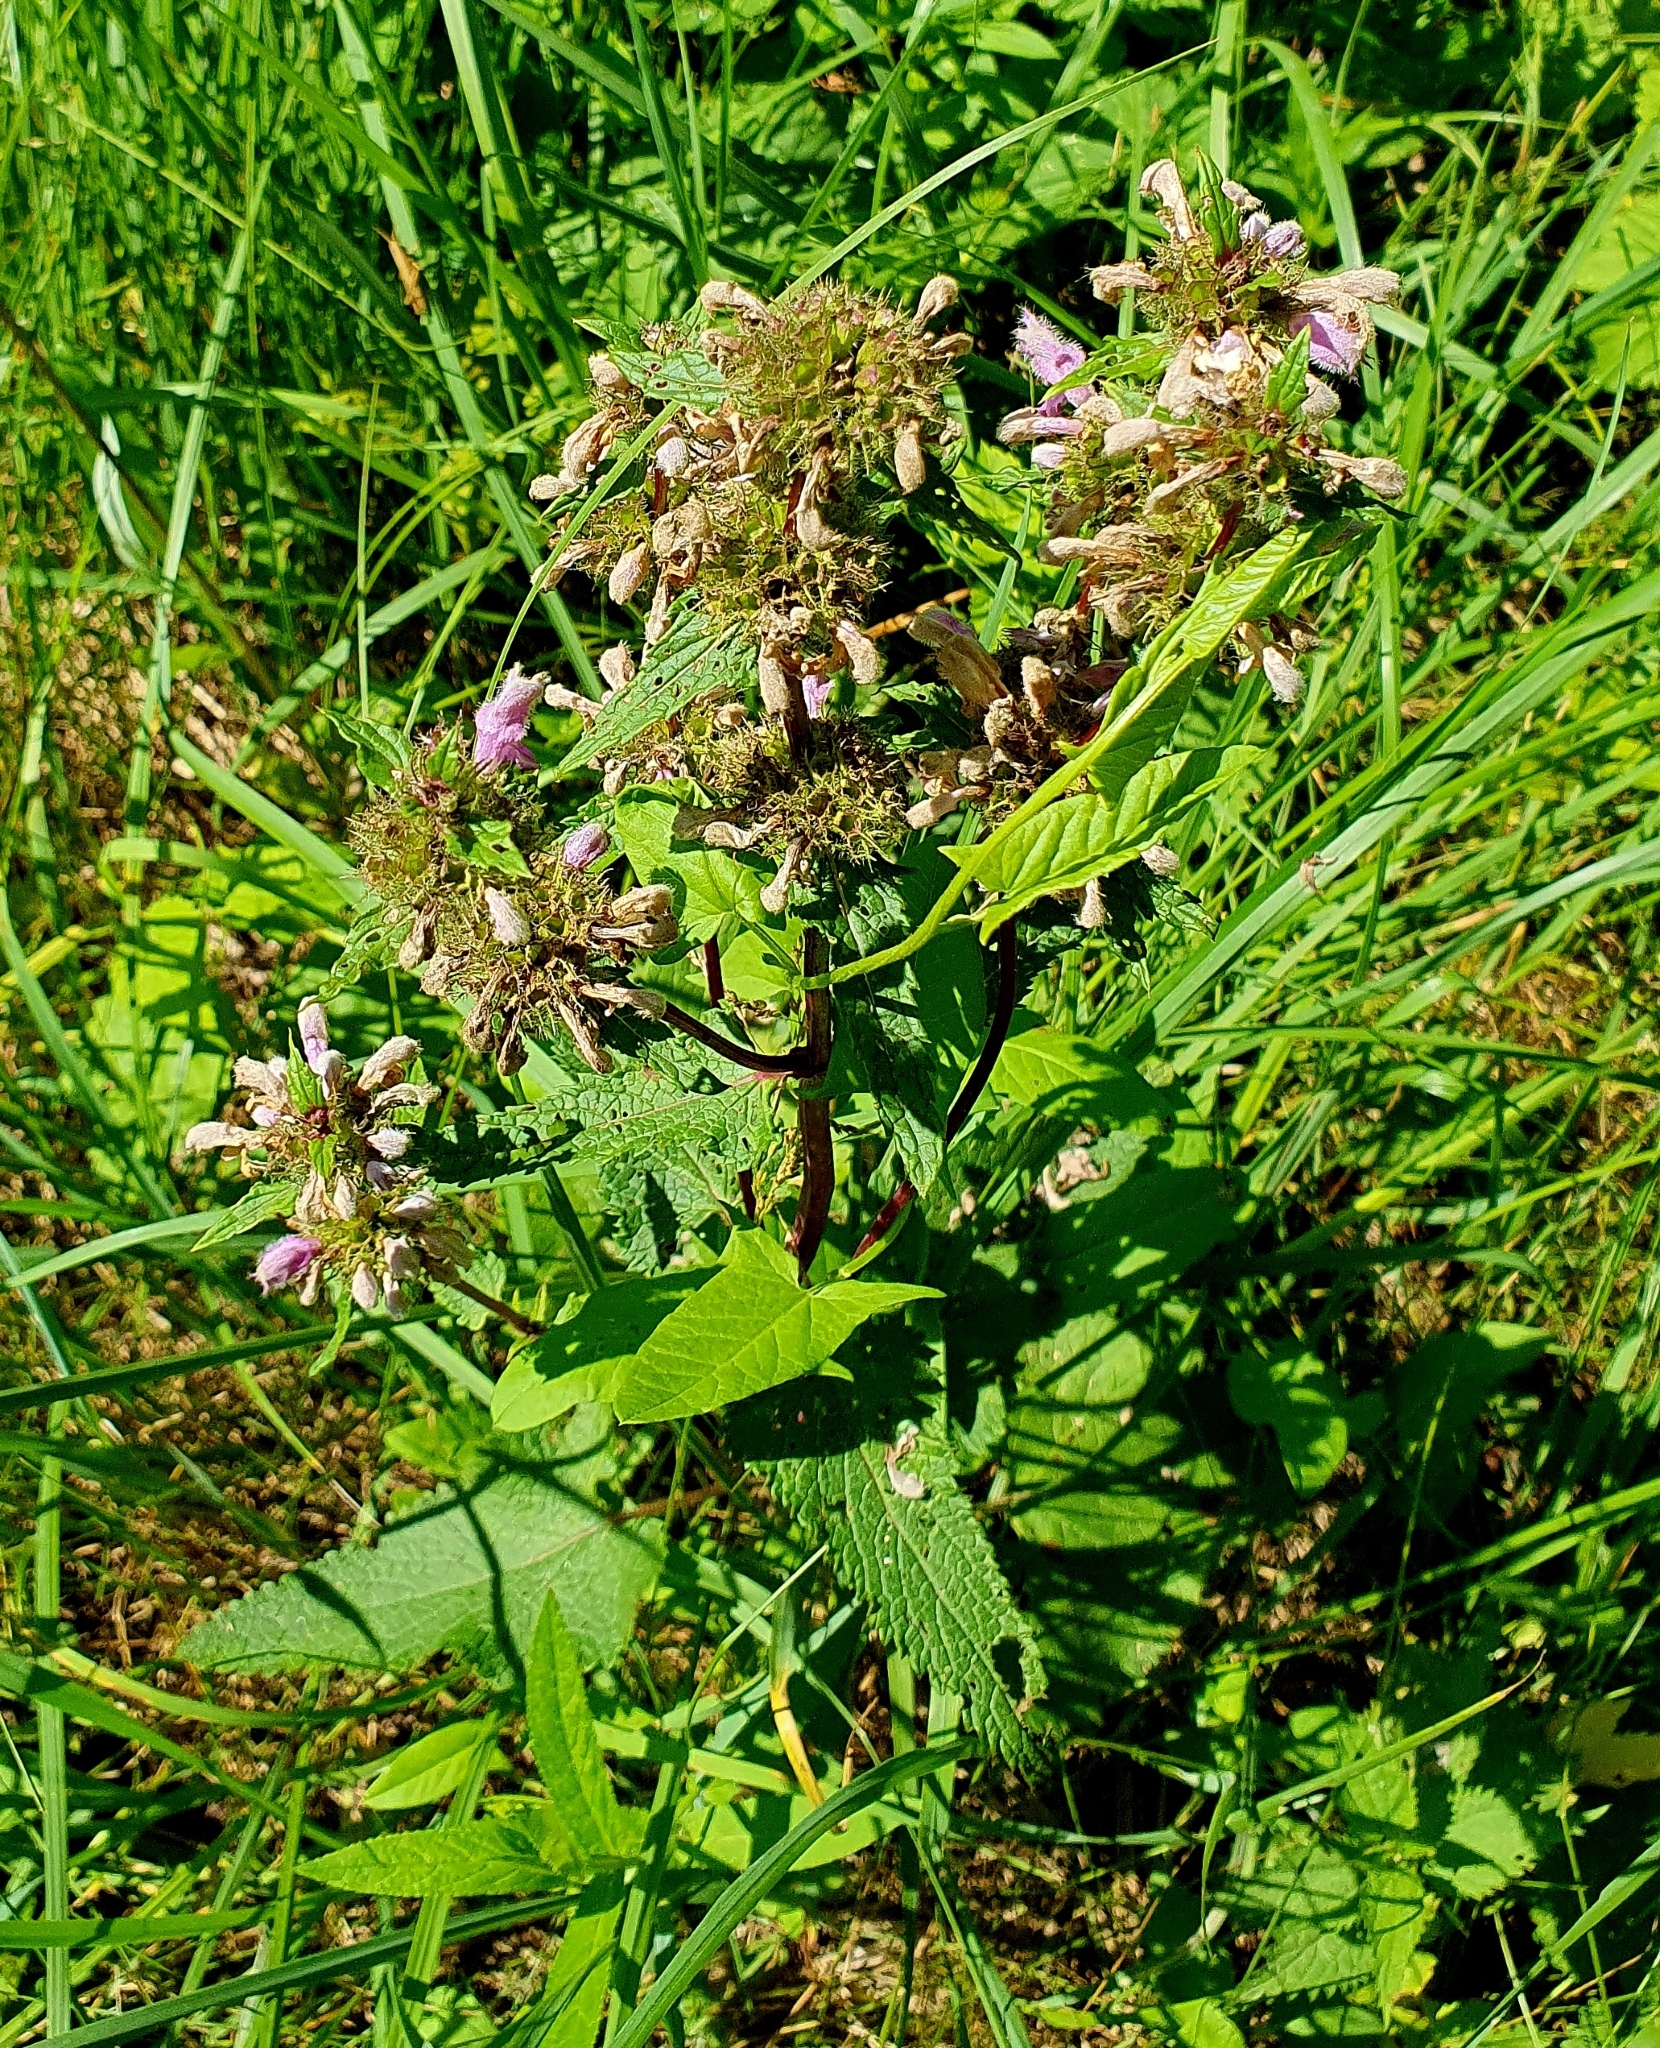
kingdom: Plantae
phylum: Tracheophyta
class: Magnoliopsida
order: Lamiales
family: Lamiaceae
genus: Phlomoides
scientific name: Phlomoides tuberosa
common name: Tuberous jerusalem sage
